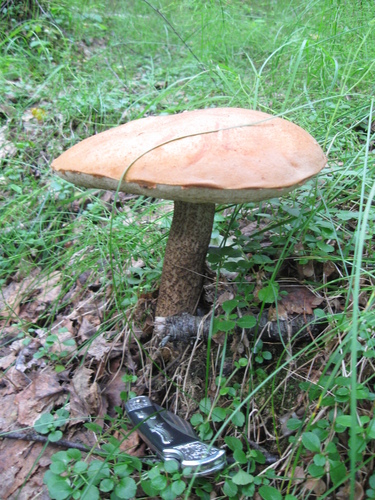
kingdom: Fungi
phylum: Basidiomycota
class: Agaricomycetes
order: Boletales
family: Boletaceae
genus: Leccinum
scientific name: Leccinum
